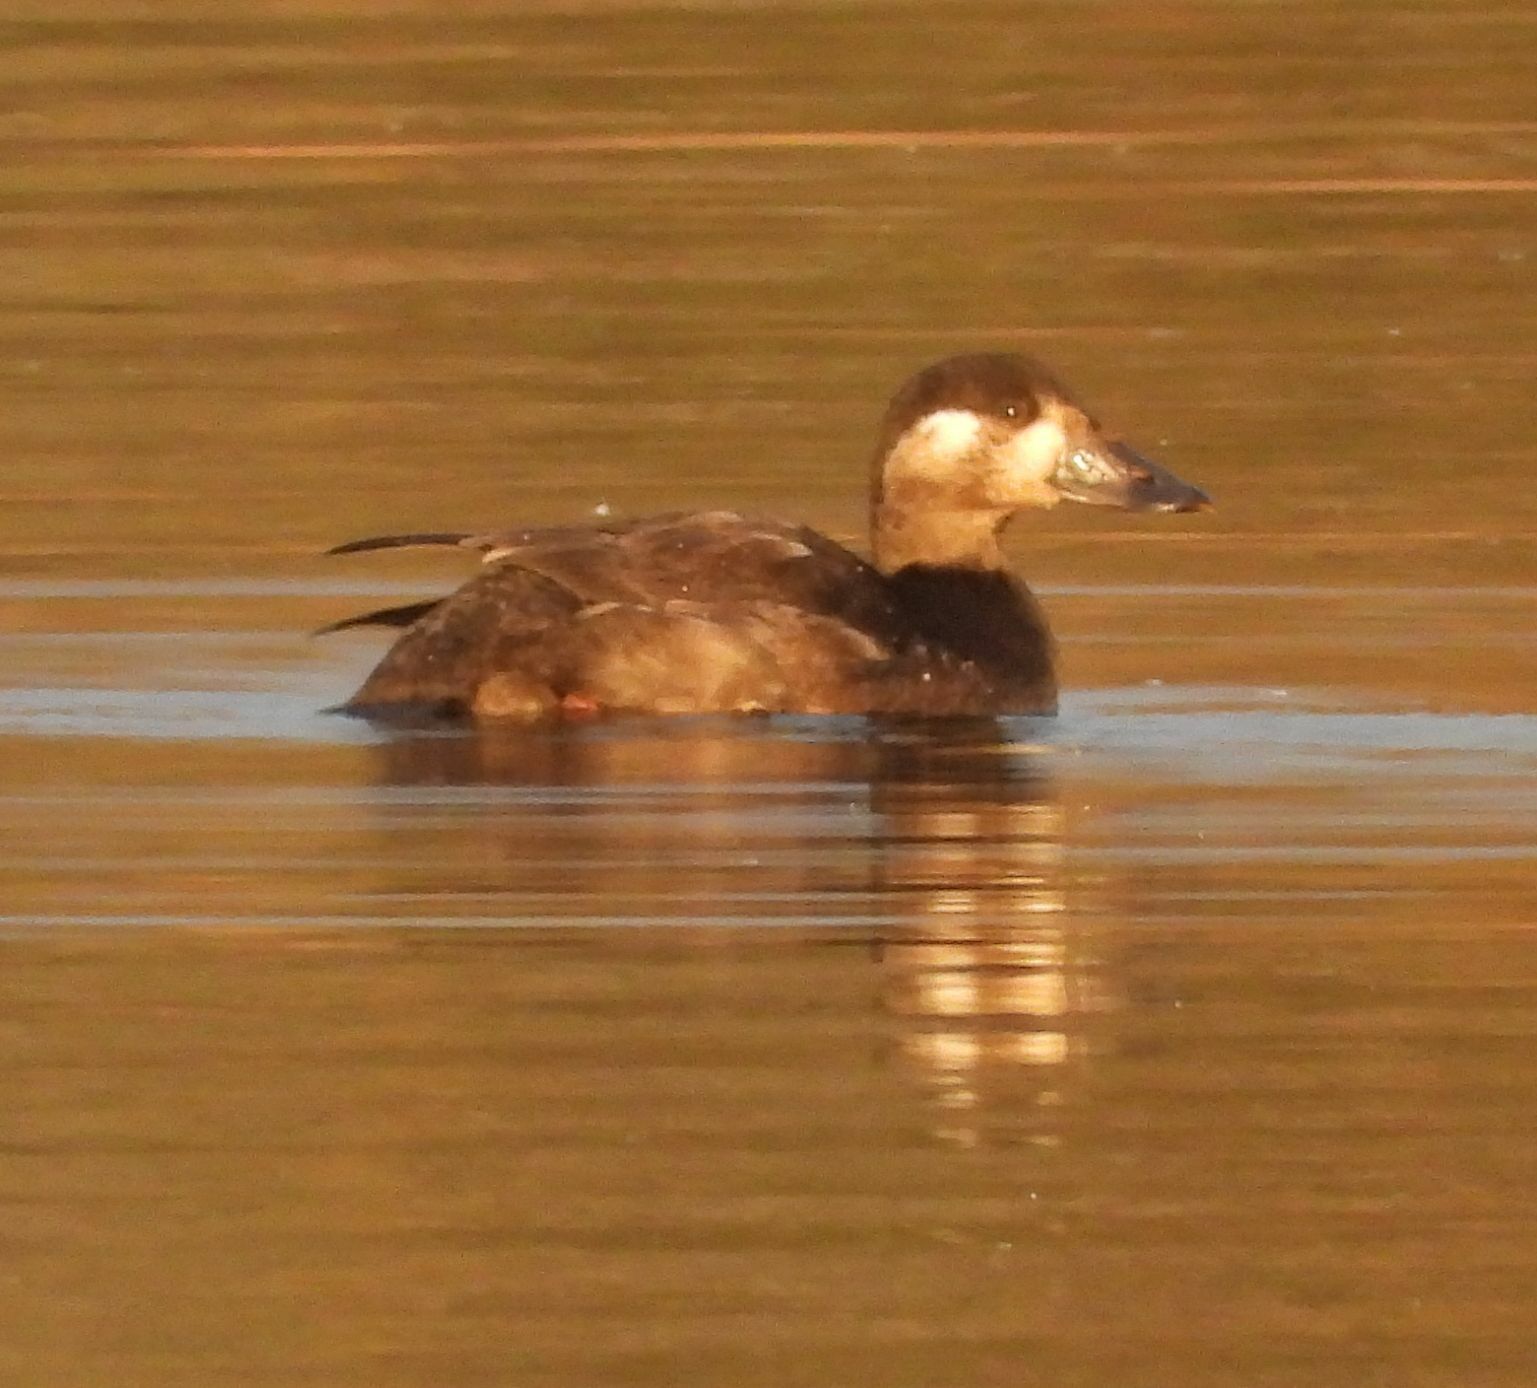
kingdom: Animalia
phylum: Chordata
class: Aves
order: Anseriformes
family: Anatidae
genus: Melanitta
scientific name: Melanitta perspicillata
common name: Surf scoter
